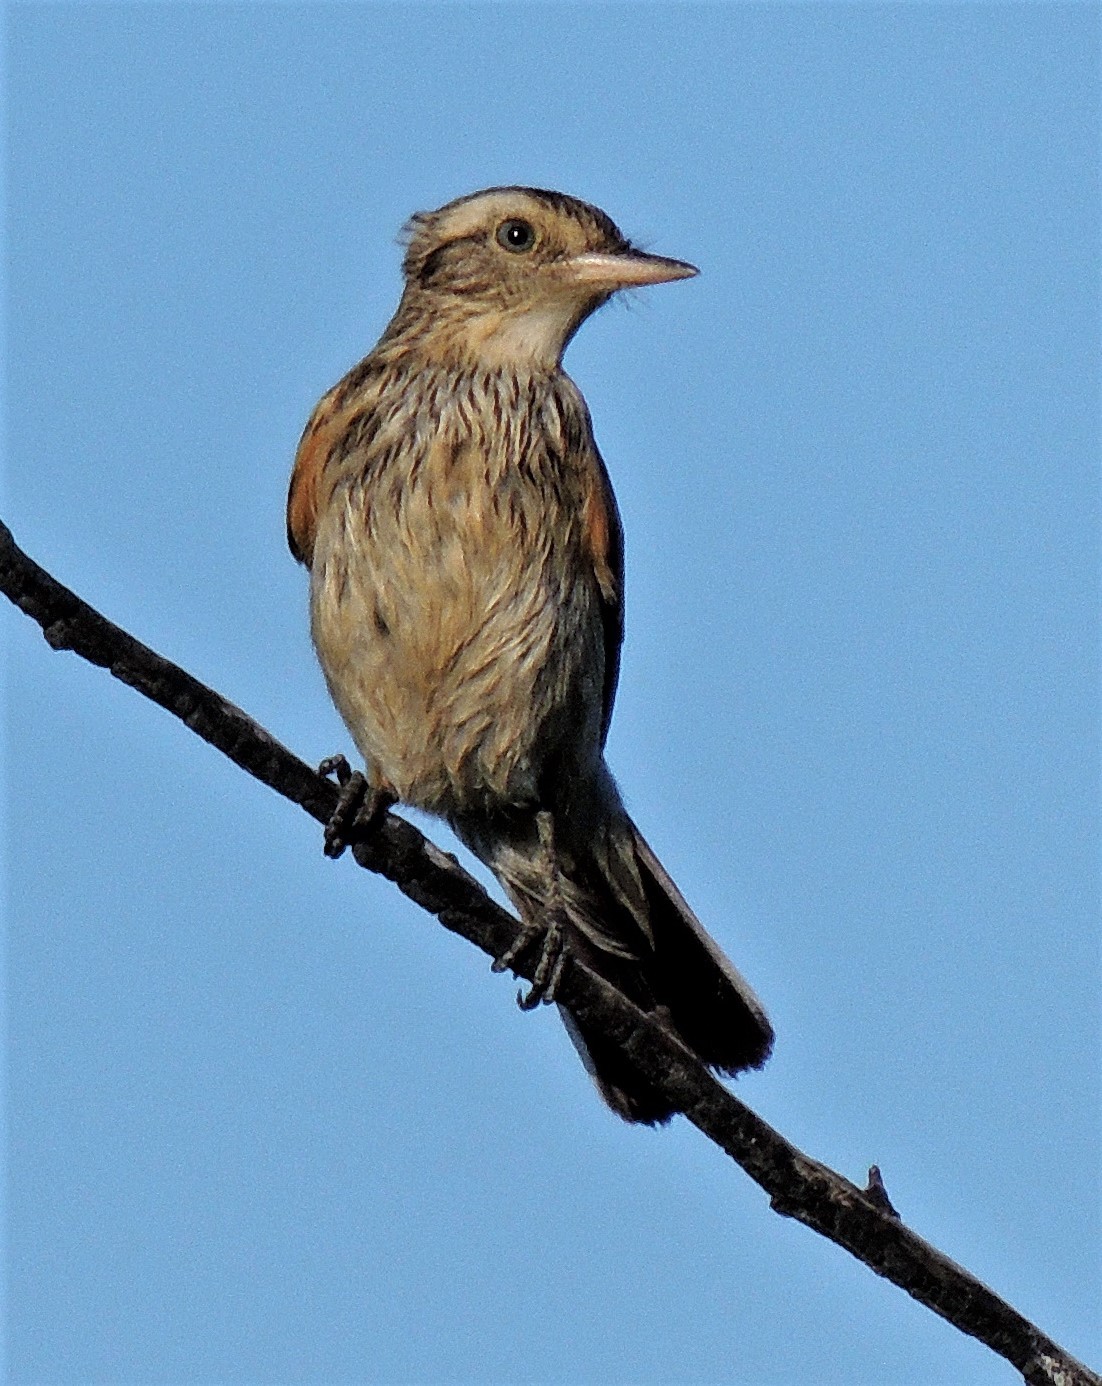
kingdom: Animalia
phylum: Chordata
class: Aves
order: Passeriformes
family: Tyrannidae
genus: Hymenops
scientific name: Hymenops perspicillatus
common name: Spectacled tyrant
